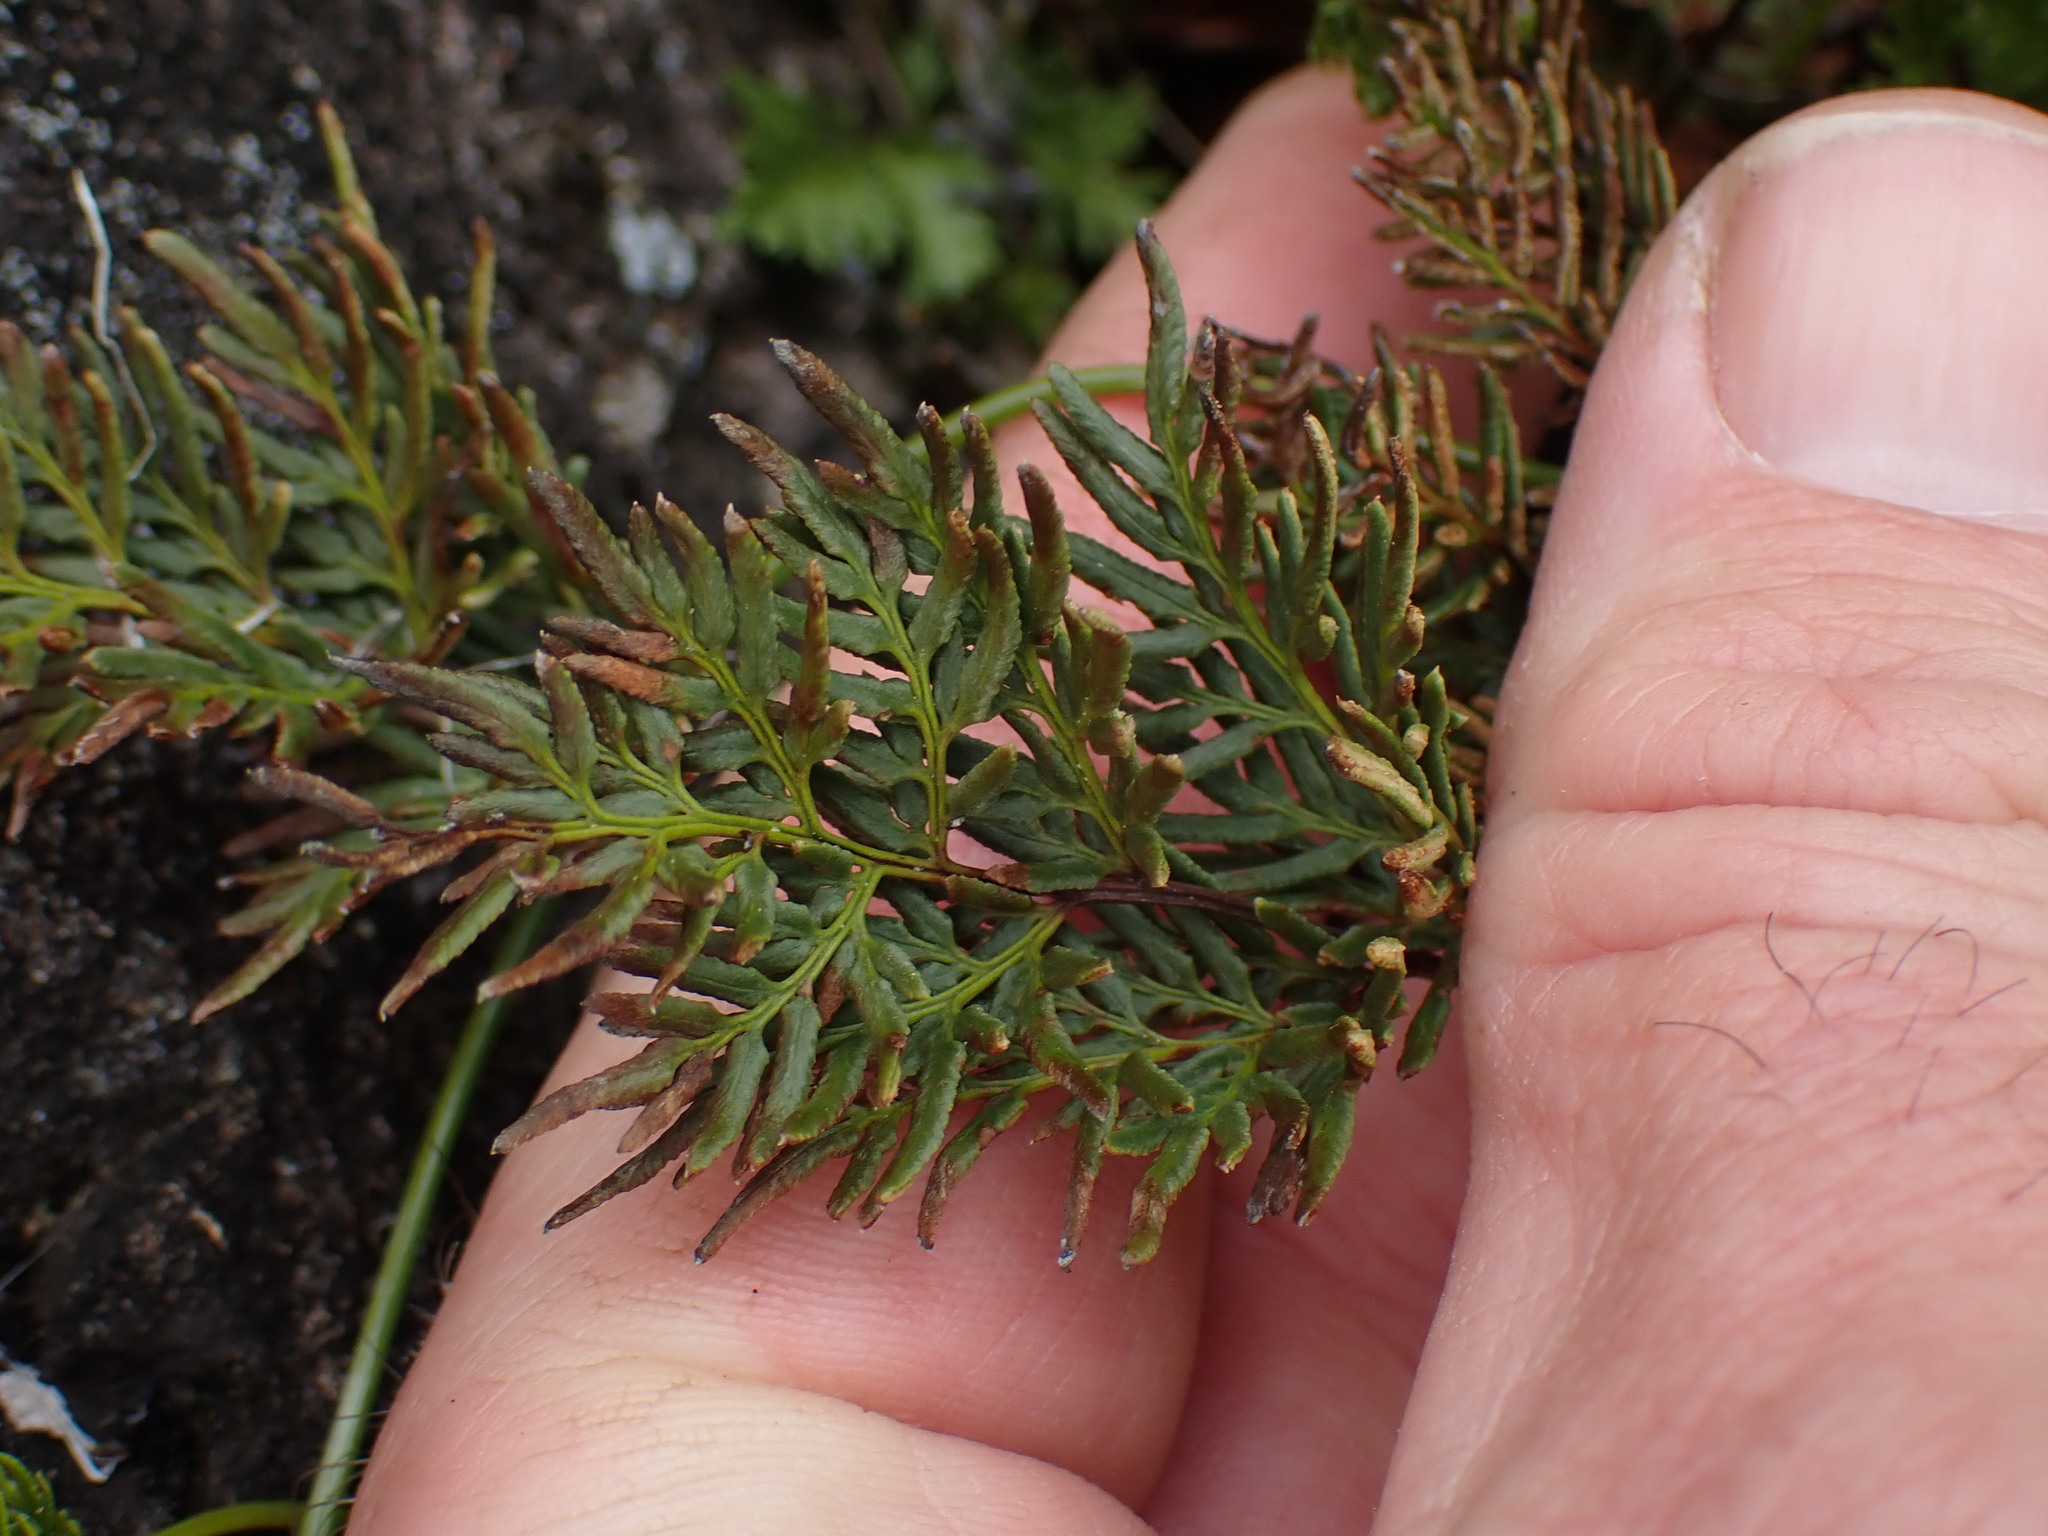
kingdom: Plantae
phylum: Tracheophyta
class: Polypodiopsida
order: Polypodiales
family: Pteridaceae
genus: Aspidotis
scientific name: Aspidotis densa
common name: Indian's dream
